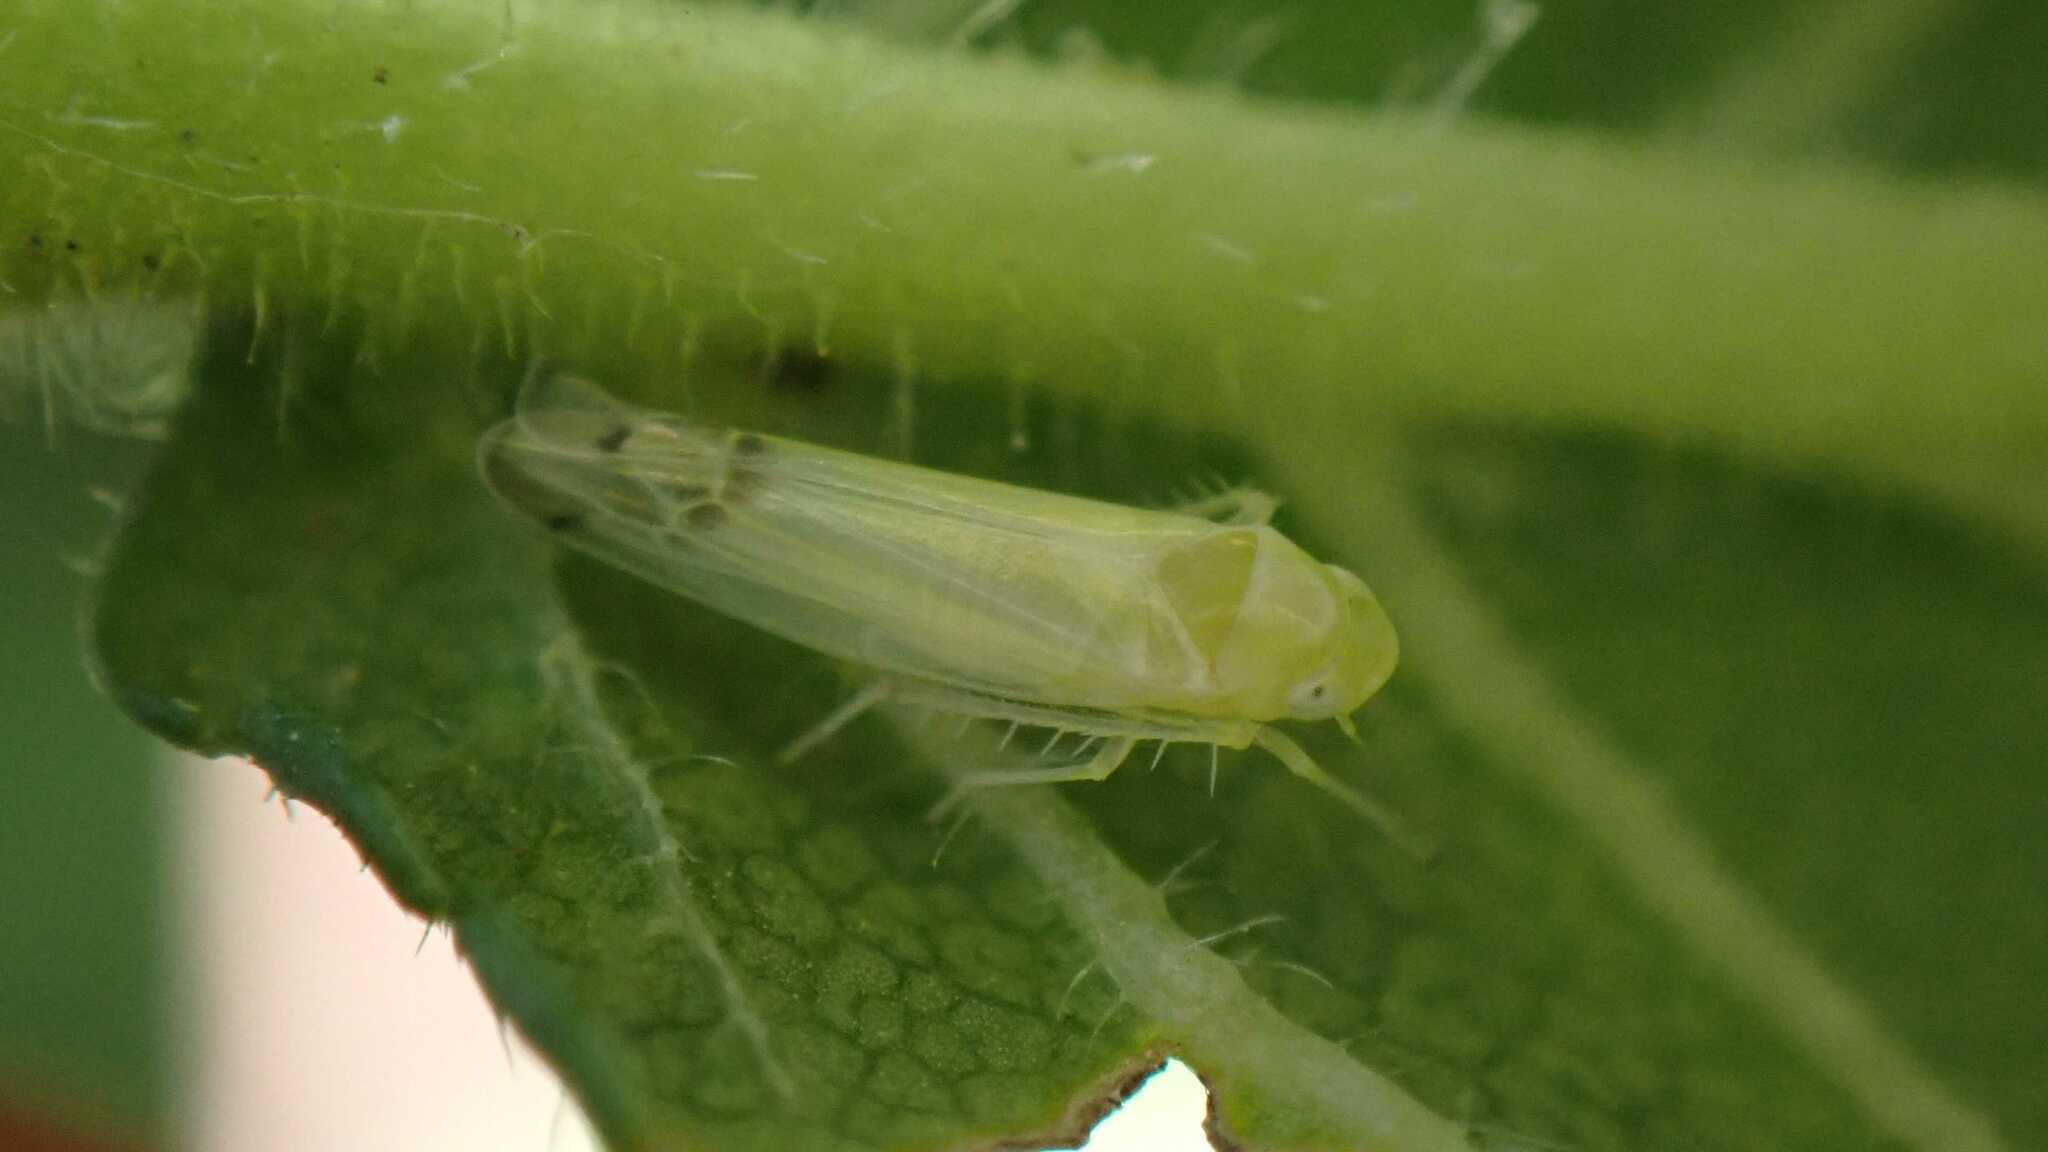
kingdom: Animalia
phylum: Arthropoda
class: Insecta
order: Hemiptera
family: Cicadellidae
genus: Ribautiana
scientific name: Ribautiana
